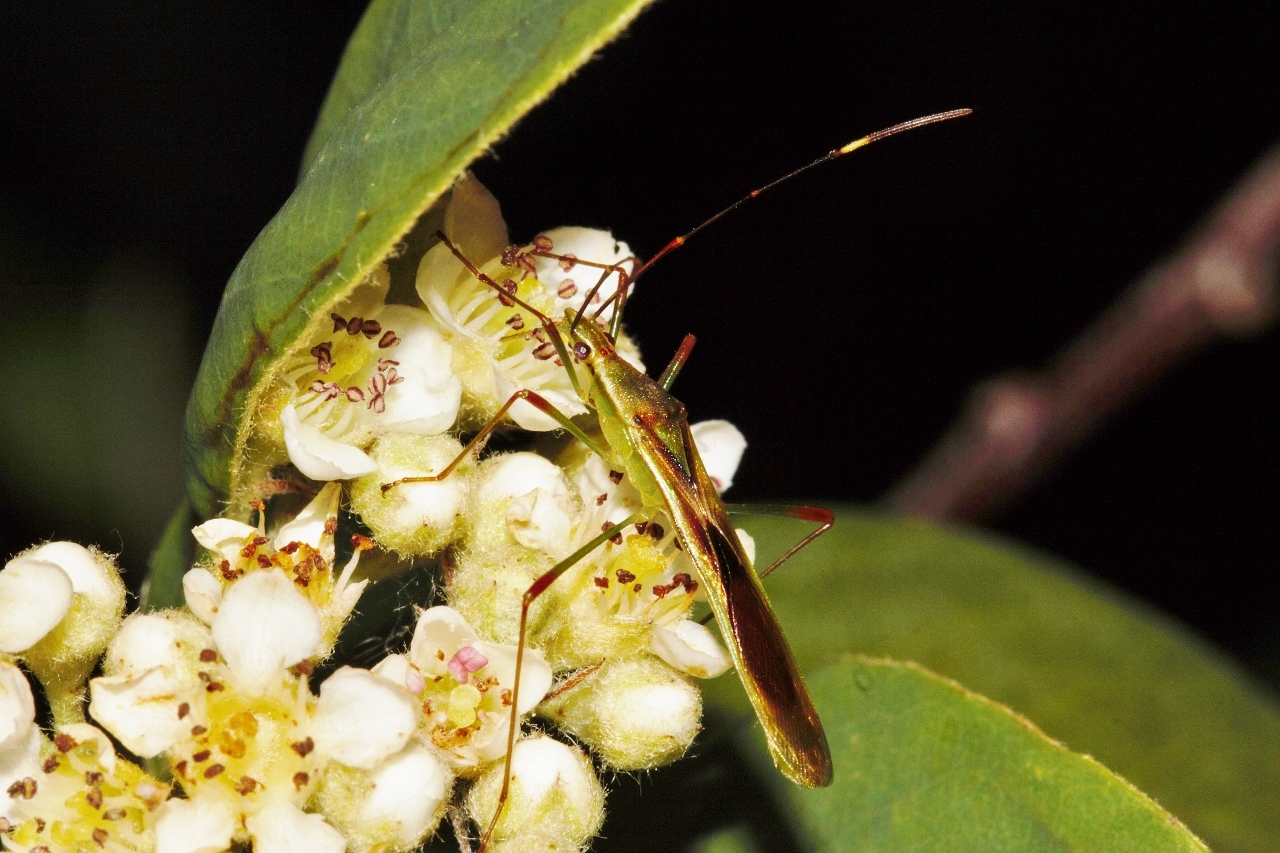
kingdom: Animalia
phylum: Arthropoda
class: Insecta
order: Hemiptera
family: Alydidae
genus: Stenocoris
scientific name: Stenocoris apicalis
